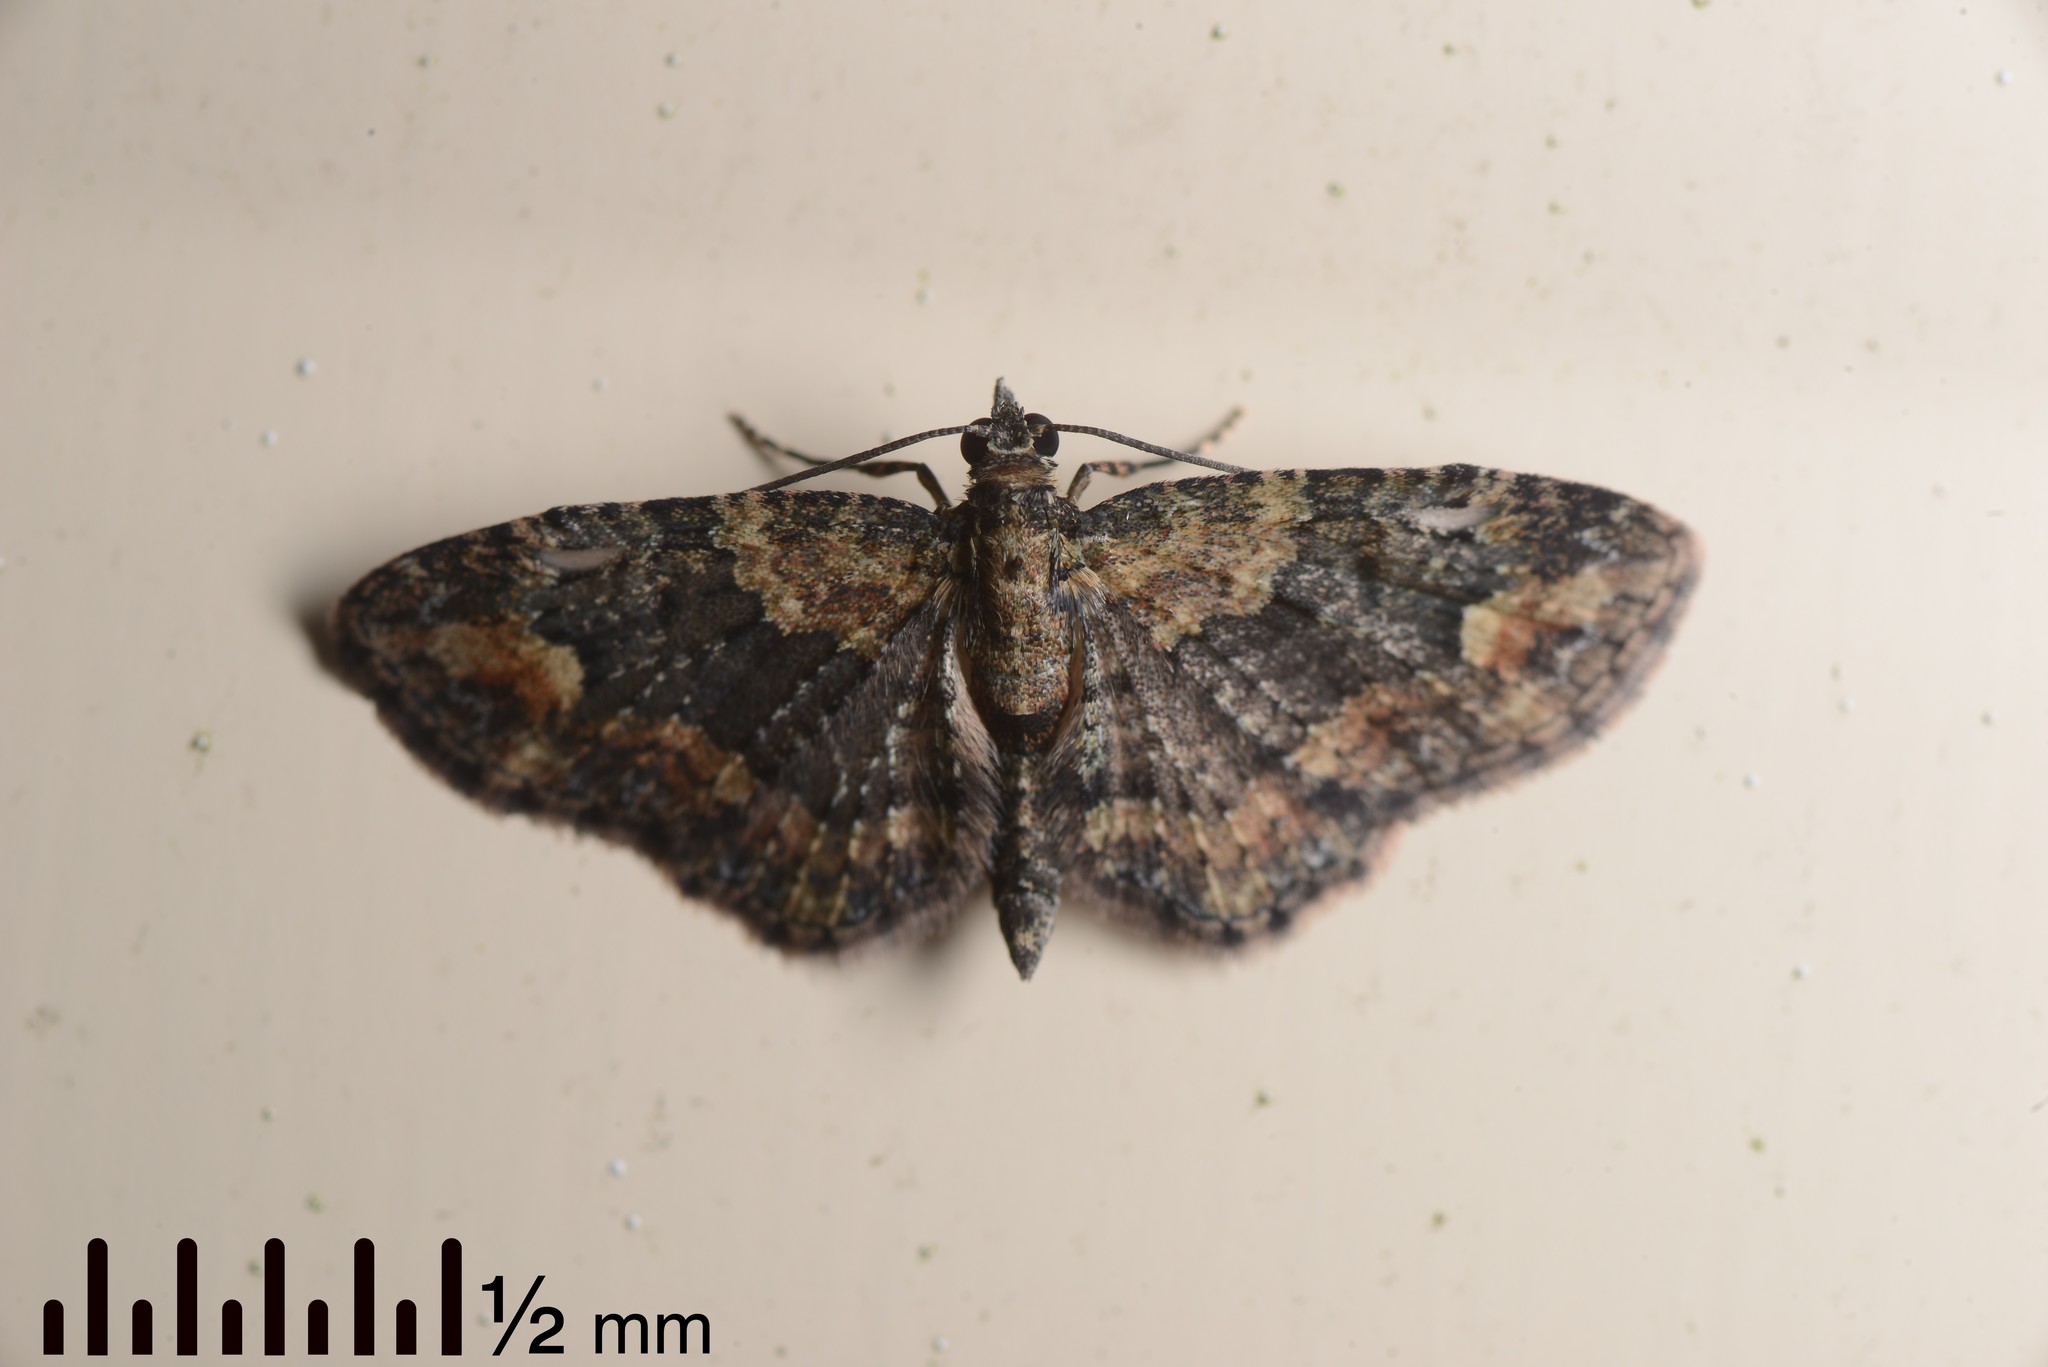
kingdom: Animalia
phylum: Arthropoda
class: Insecta
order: Lepidoptera
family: Geometridae
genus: Pasiphilodes
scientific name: Pasiphilodes testulata
